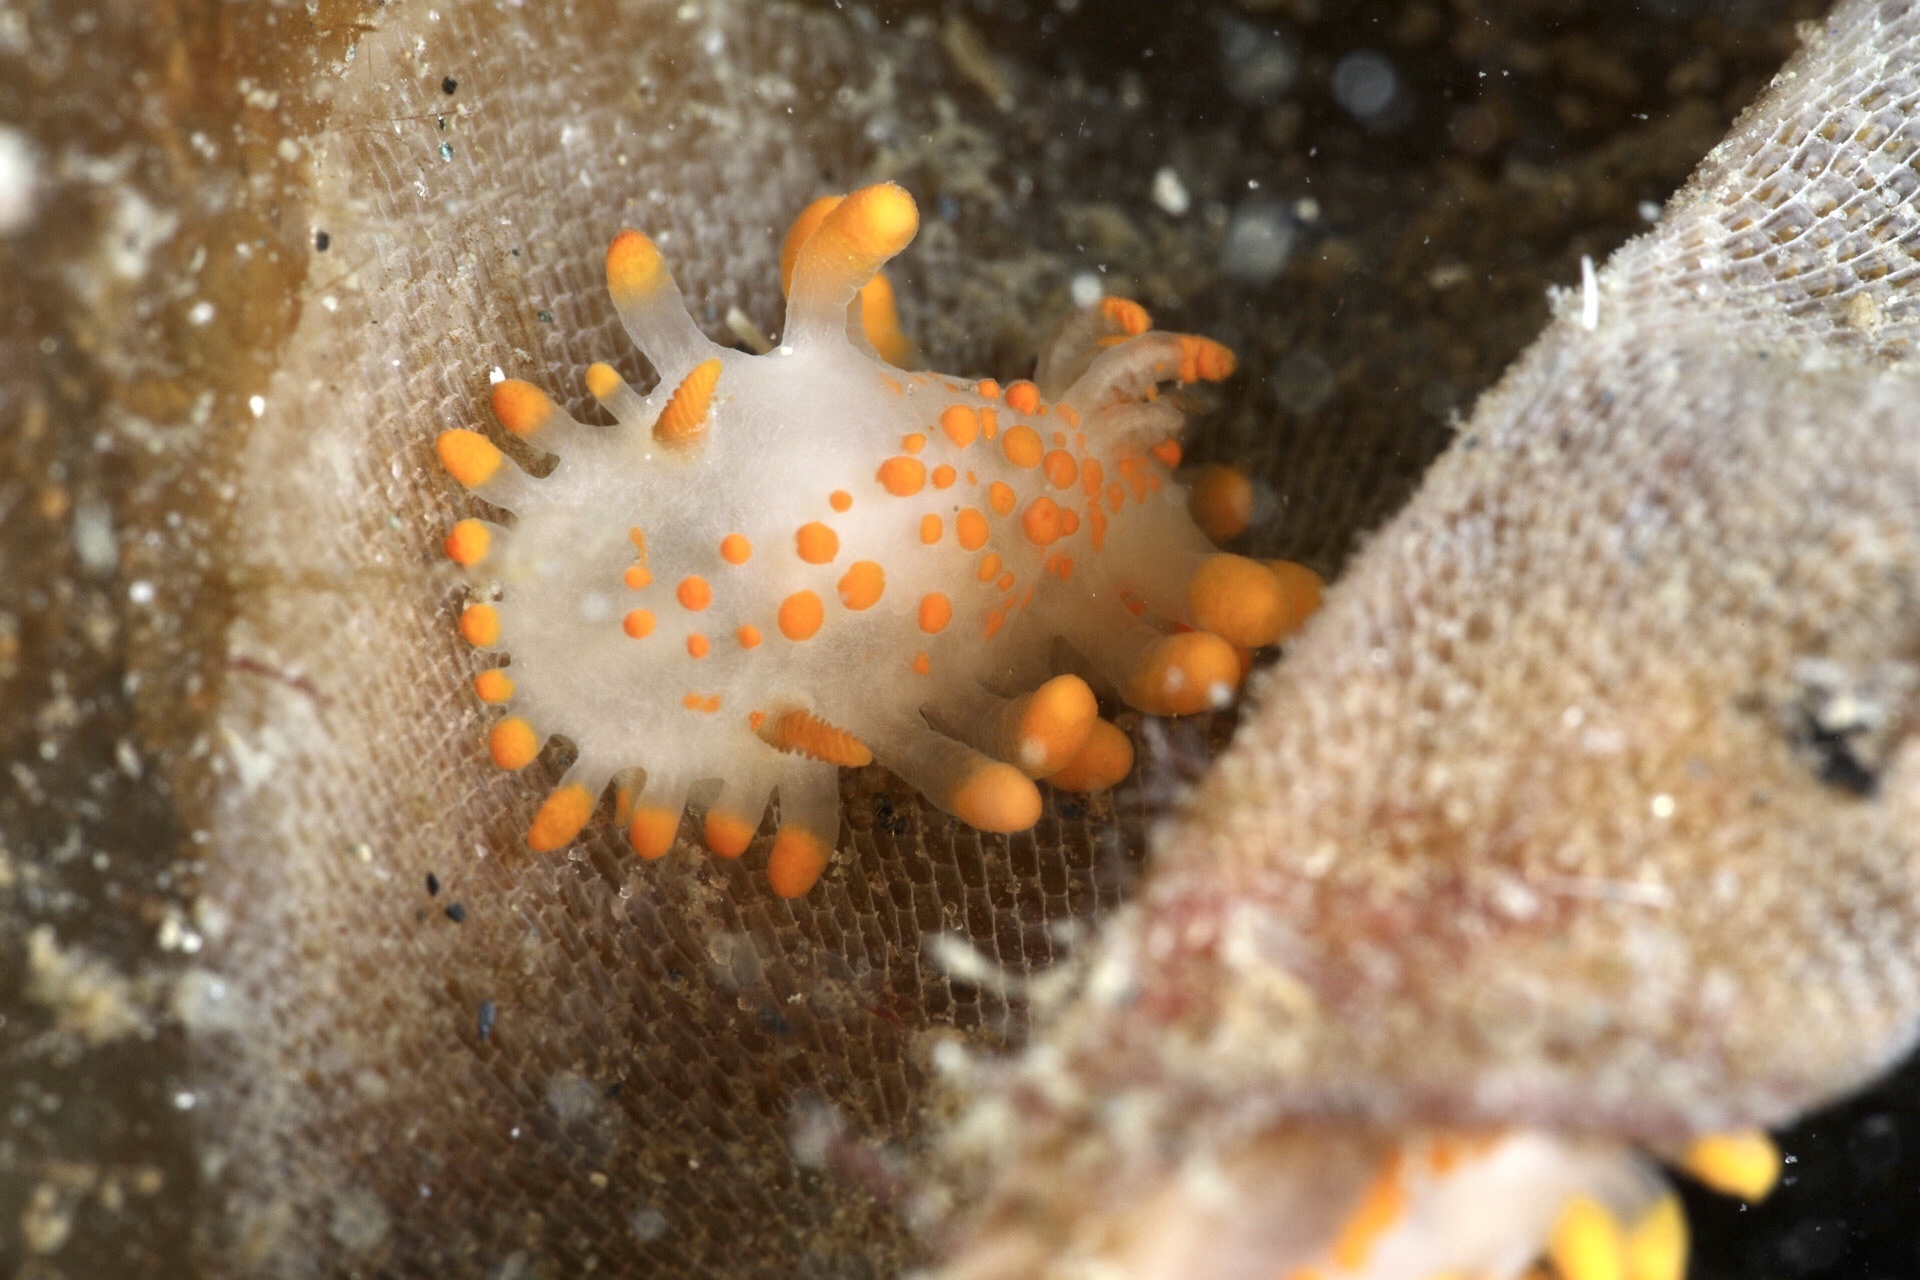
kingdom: Animalia
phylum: Mollusca
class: Gastropoda
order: Nudibranchia
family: Polyceridae
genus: Limacia
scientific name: Limacia clavigera
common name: Orange-clubbed sea slug
